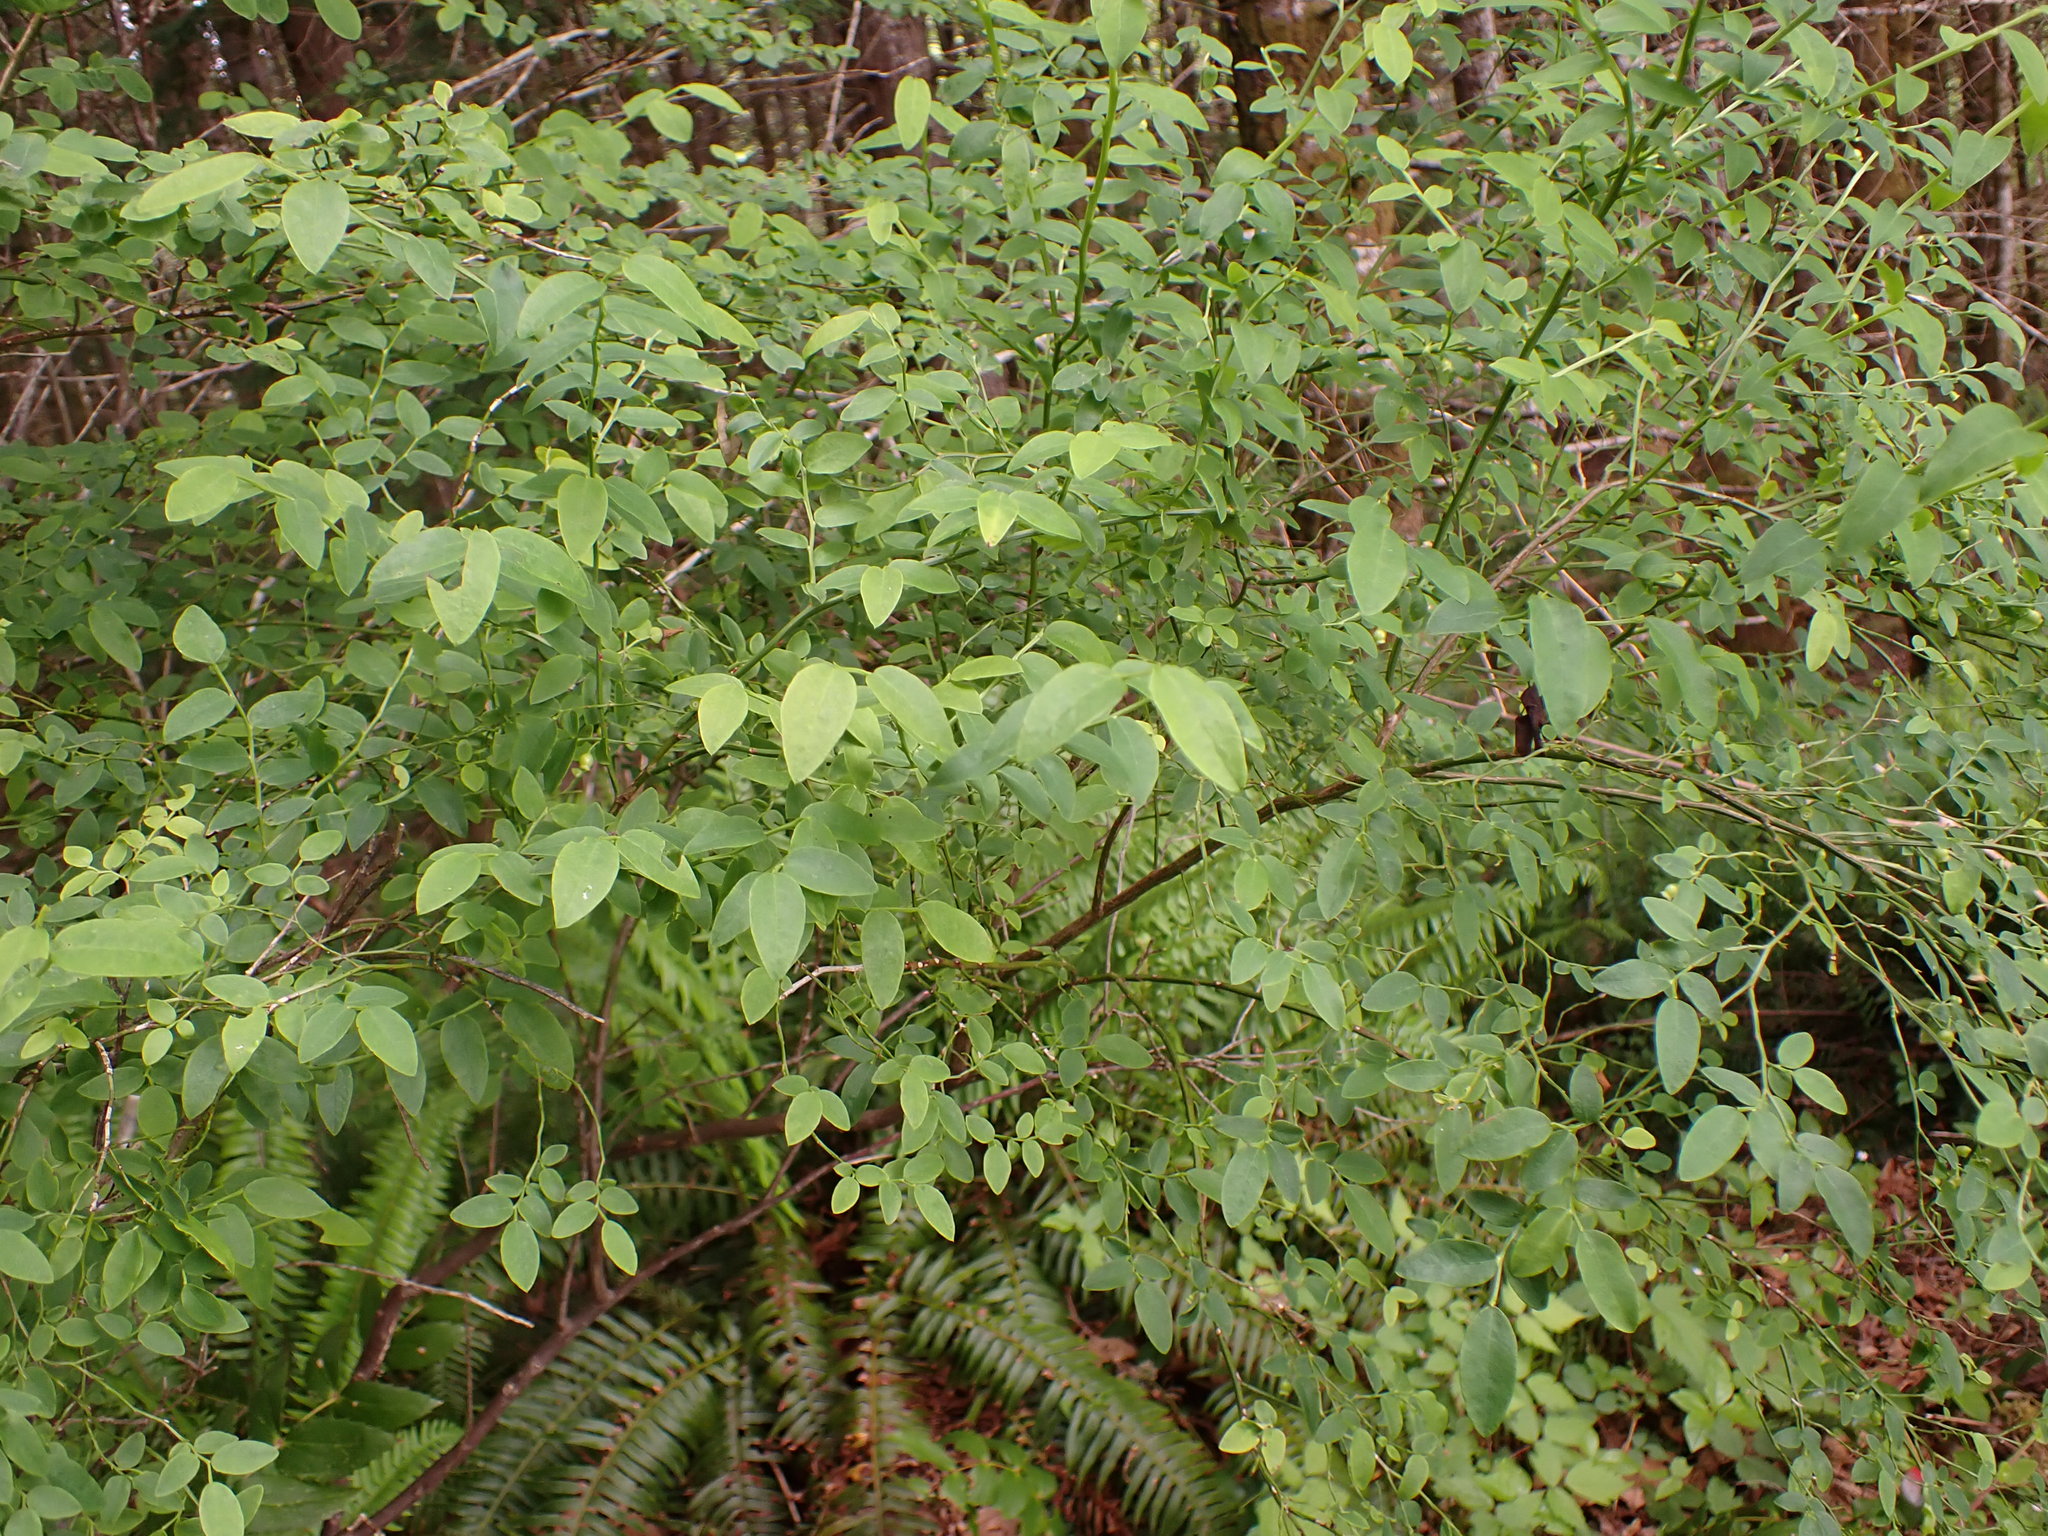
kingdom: Plantae
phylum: Tracheophyta
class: Magnoliopsida
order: Ericales
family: Ericaceae
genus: Vaccinium
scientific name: Vaccinium parvifolium
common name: Red-huckleberry
